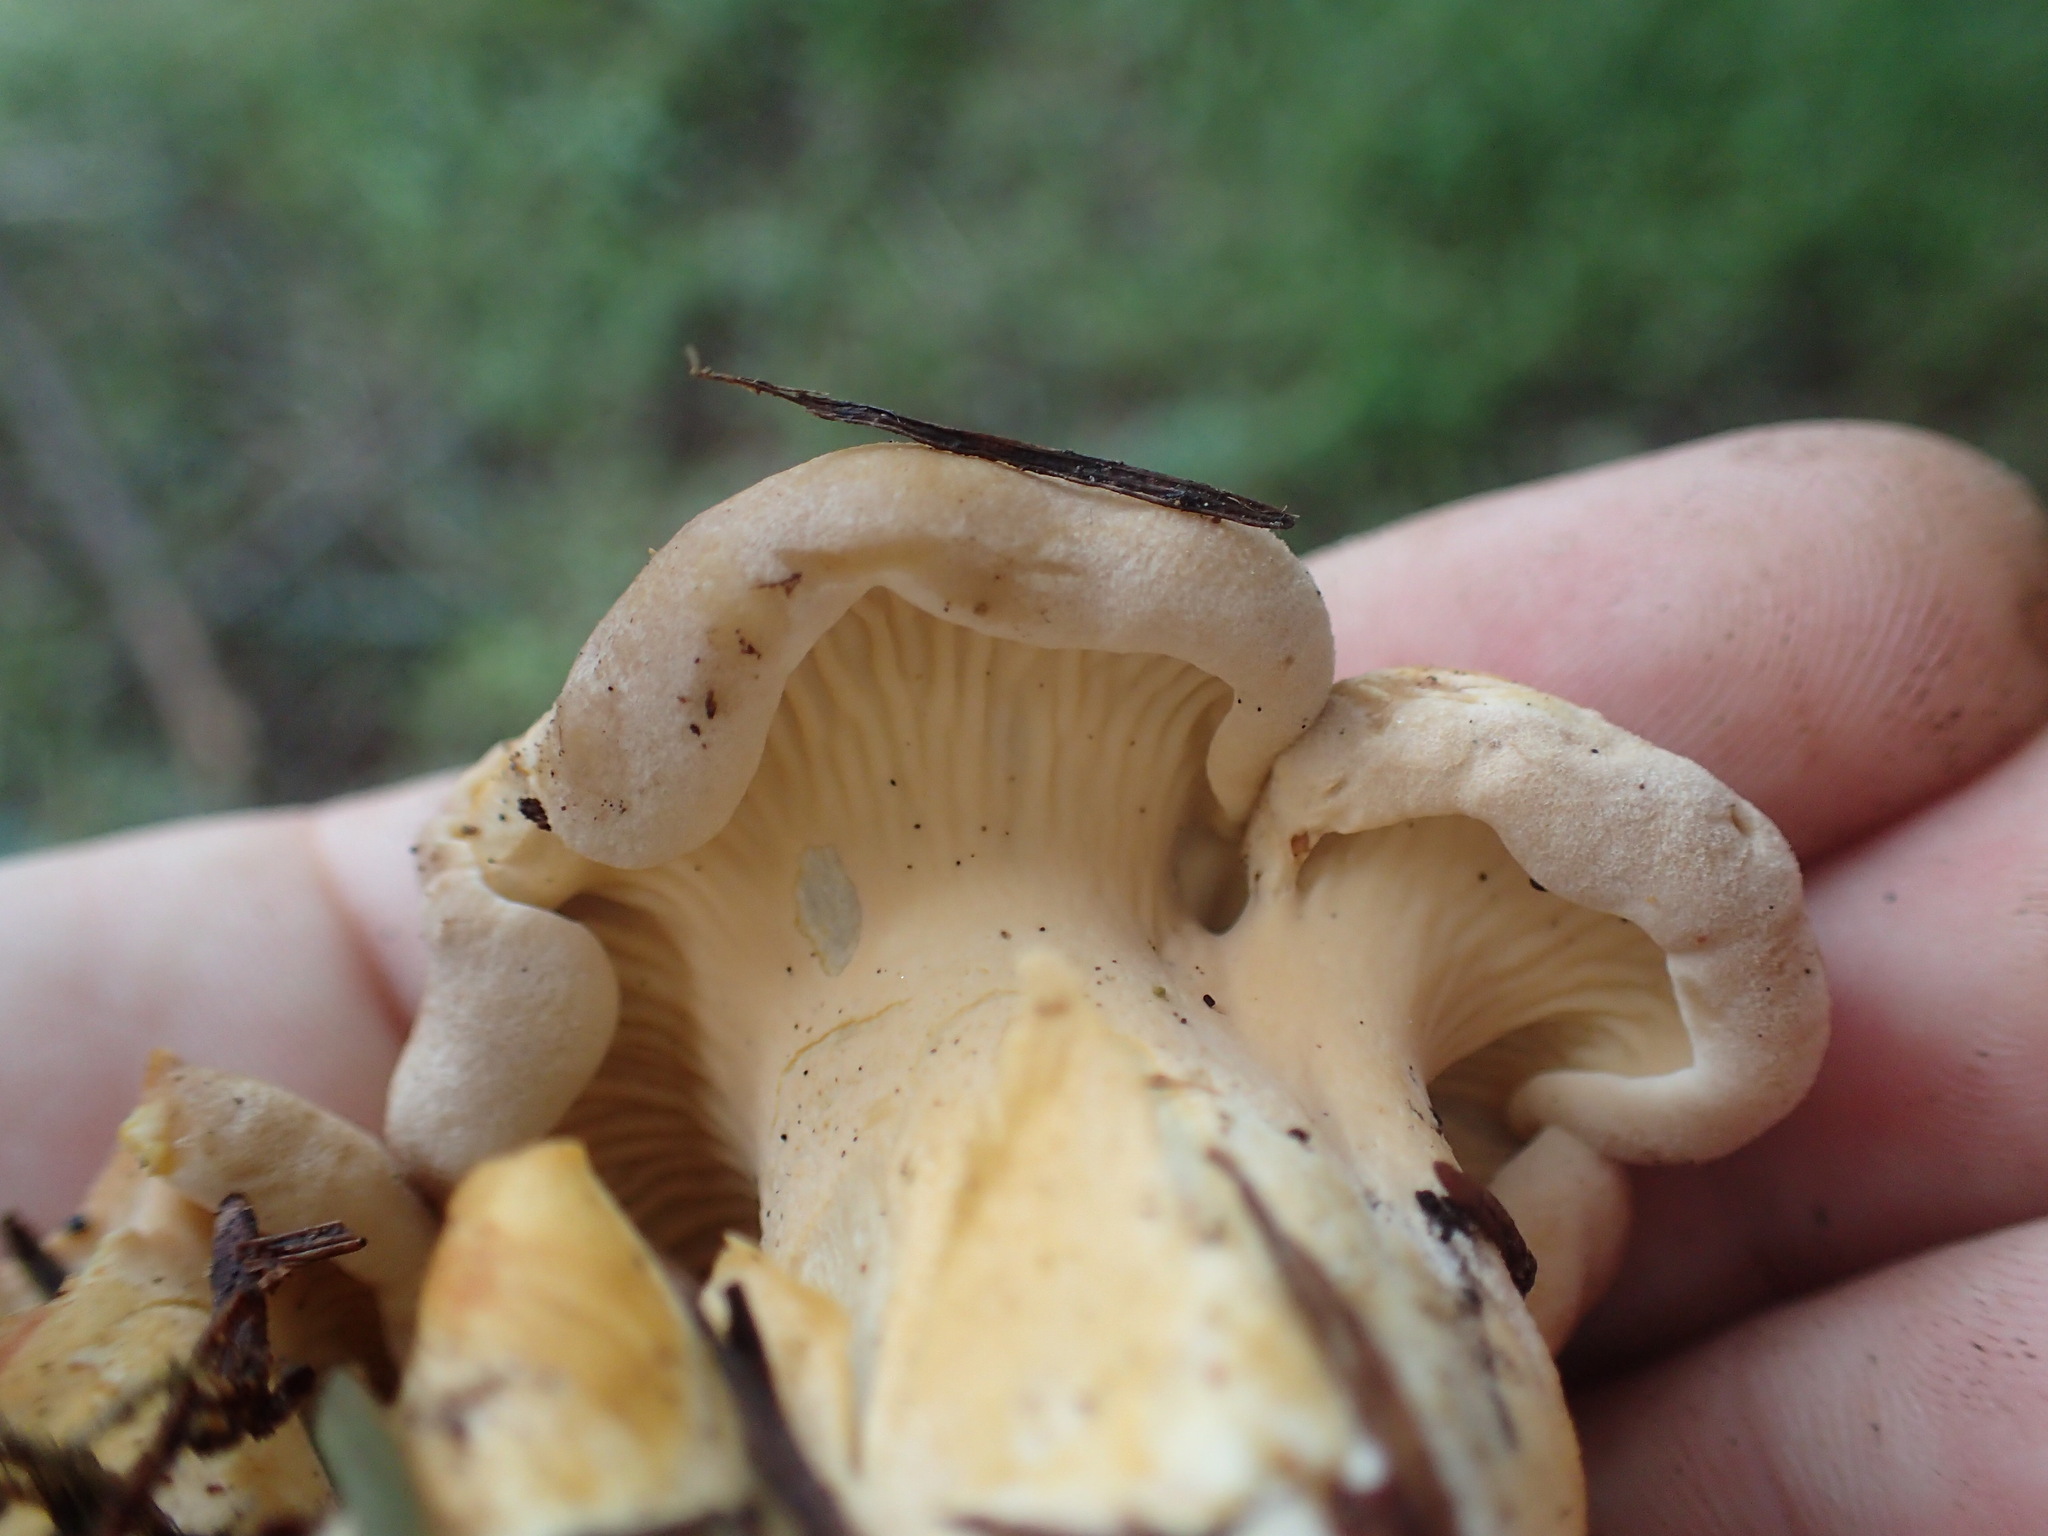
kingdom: Fungi
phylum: Basidiomycota
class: Agaricomycetes
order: Cantharellales
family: Hydnaceae
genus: Cantharellus
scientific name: Cantharellus formosus
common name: Pacific golden chanterelle
